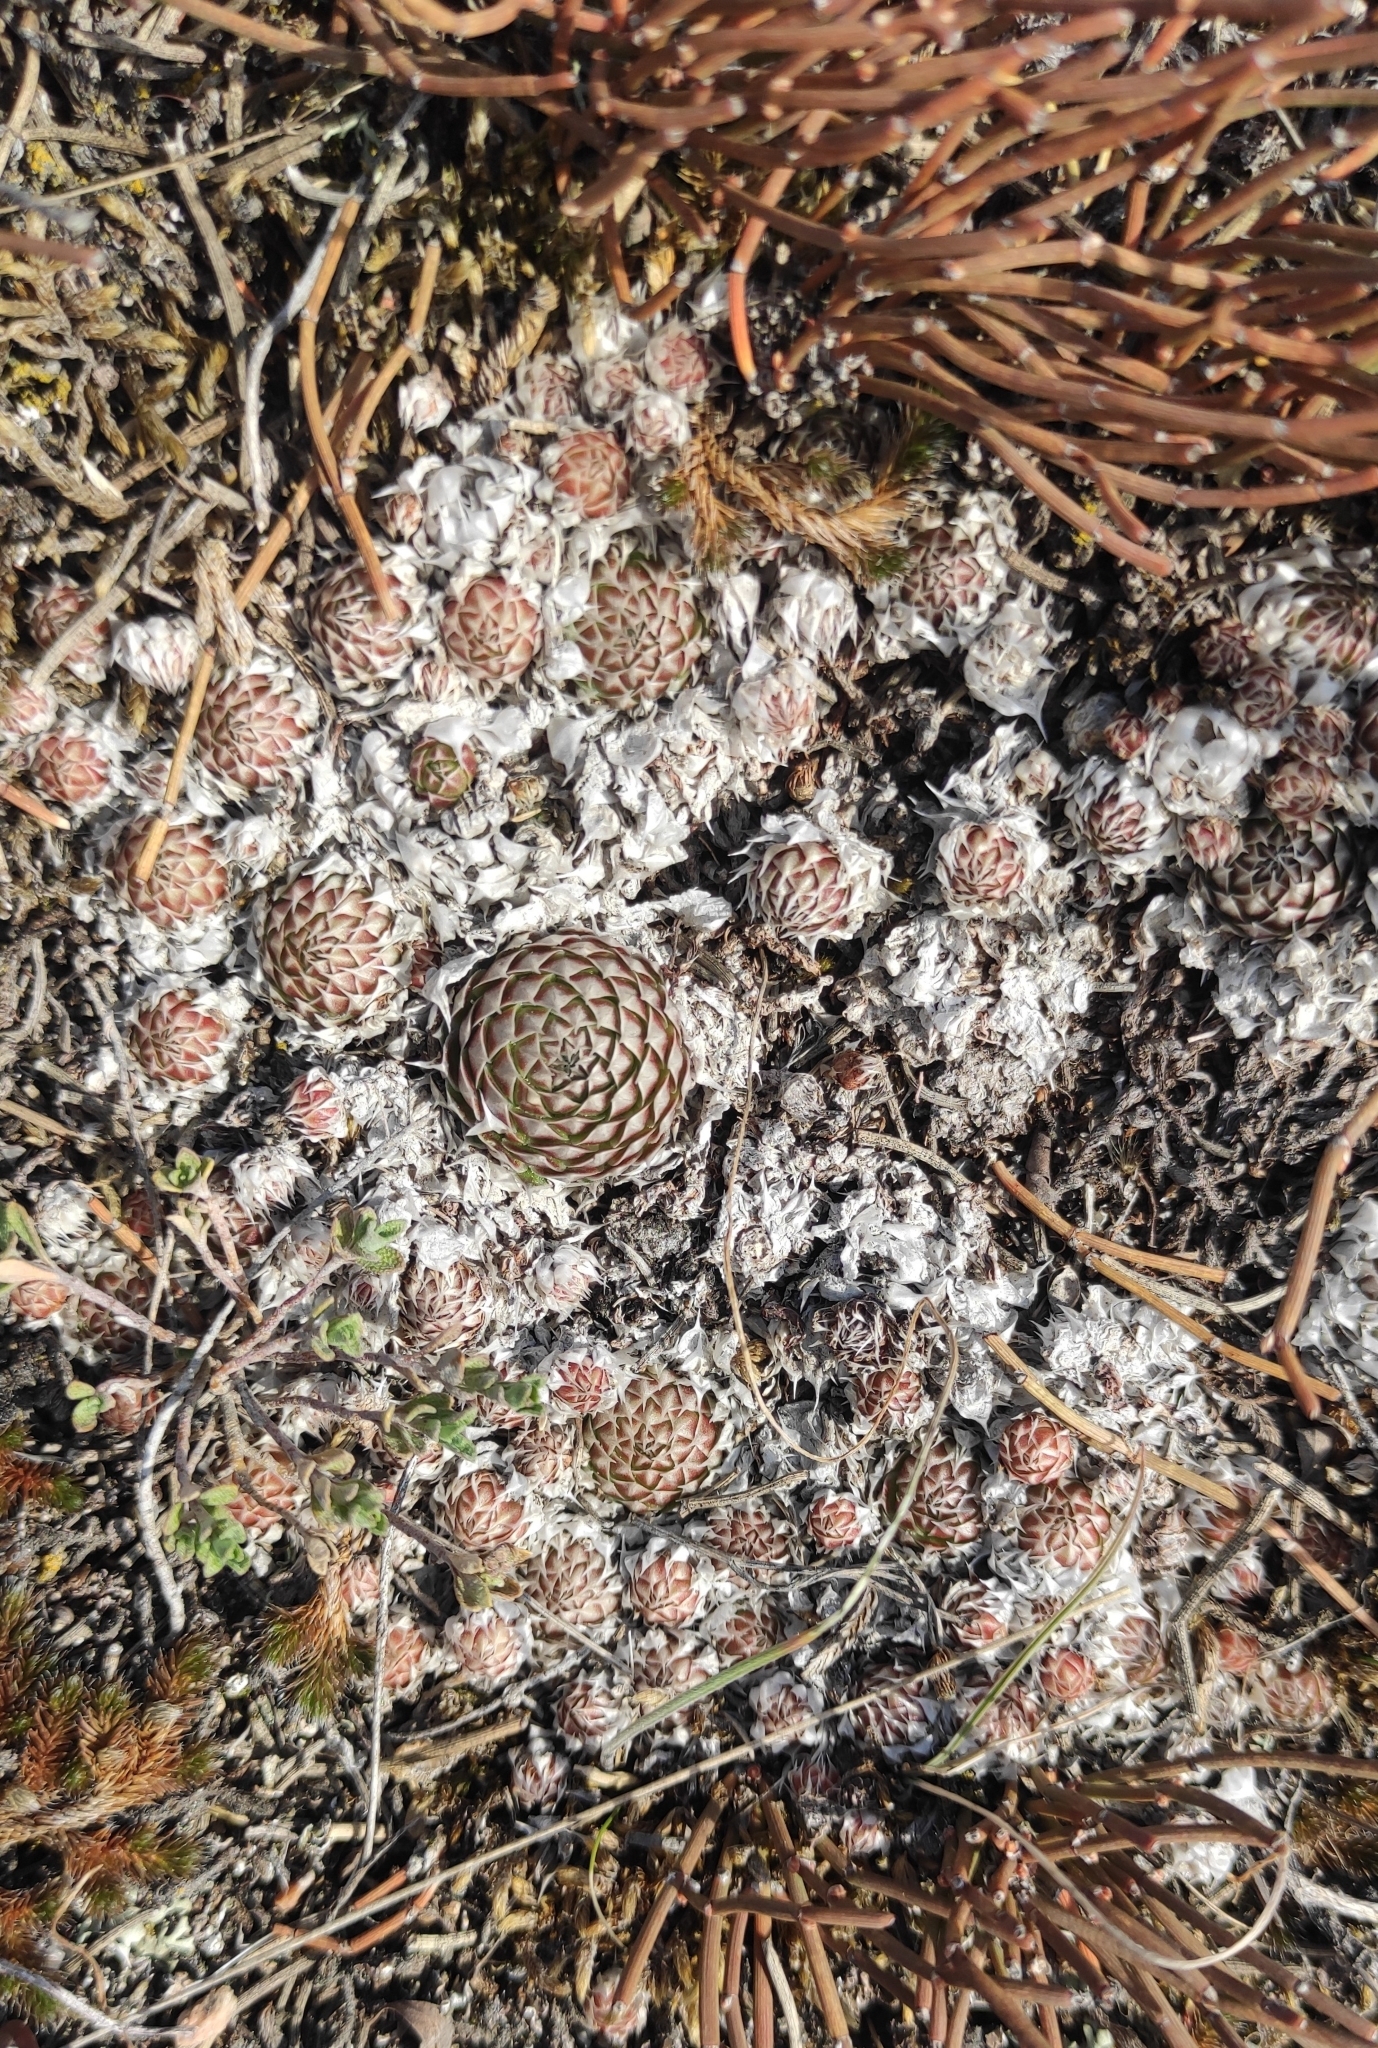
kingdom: Plantae
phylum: Tracheophyta
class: Magnoliopsida
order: Saxifragales
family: Crassulaceae
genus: Orostachys
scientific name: Orostachys spinosa
